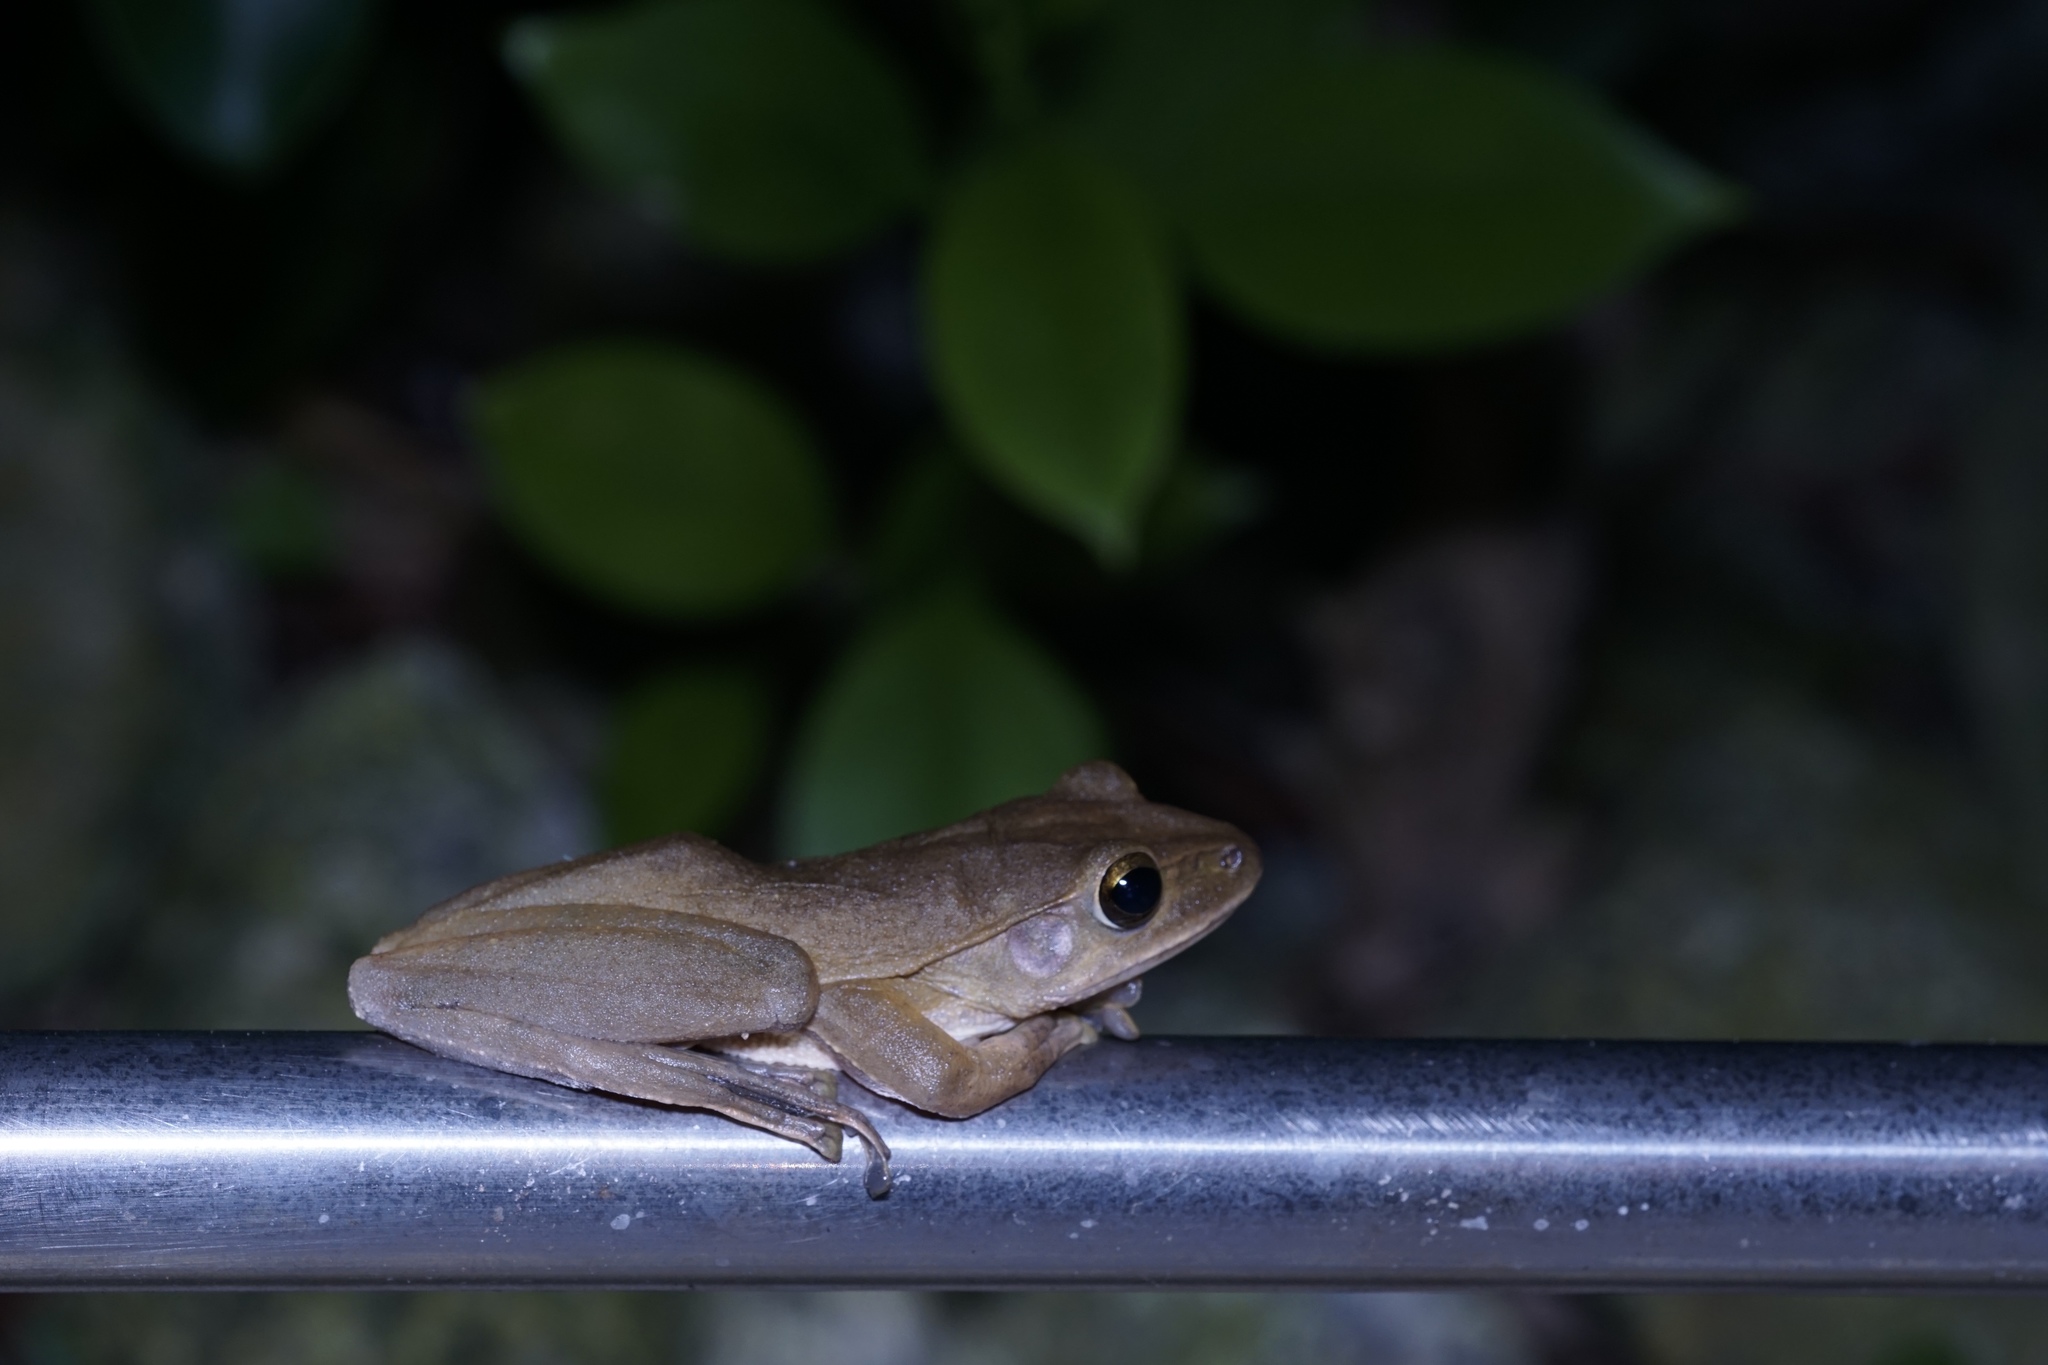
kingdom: Animalia
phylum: Chordata
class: Amphibia
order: Anura
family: Rhacophoridae
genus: Polypedates
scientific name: Polypedates megacephalus
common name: Hong kong whipping frog
